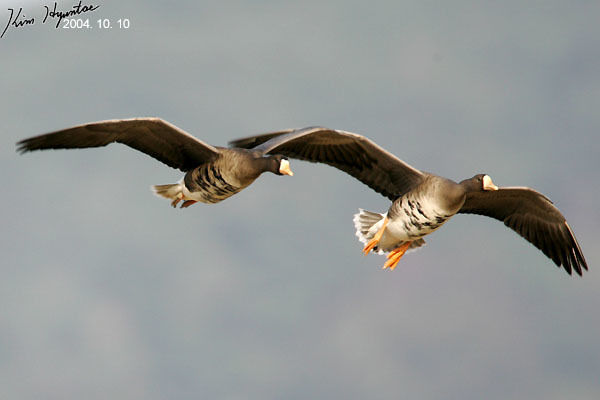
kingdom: Animalia
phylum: Chordata
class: Aves
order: Anseriformes
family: Anatidae
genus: Anser
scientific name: Anser albifrons
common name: Greater white-fronted goose
